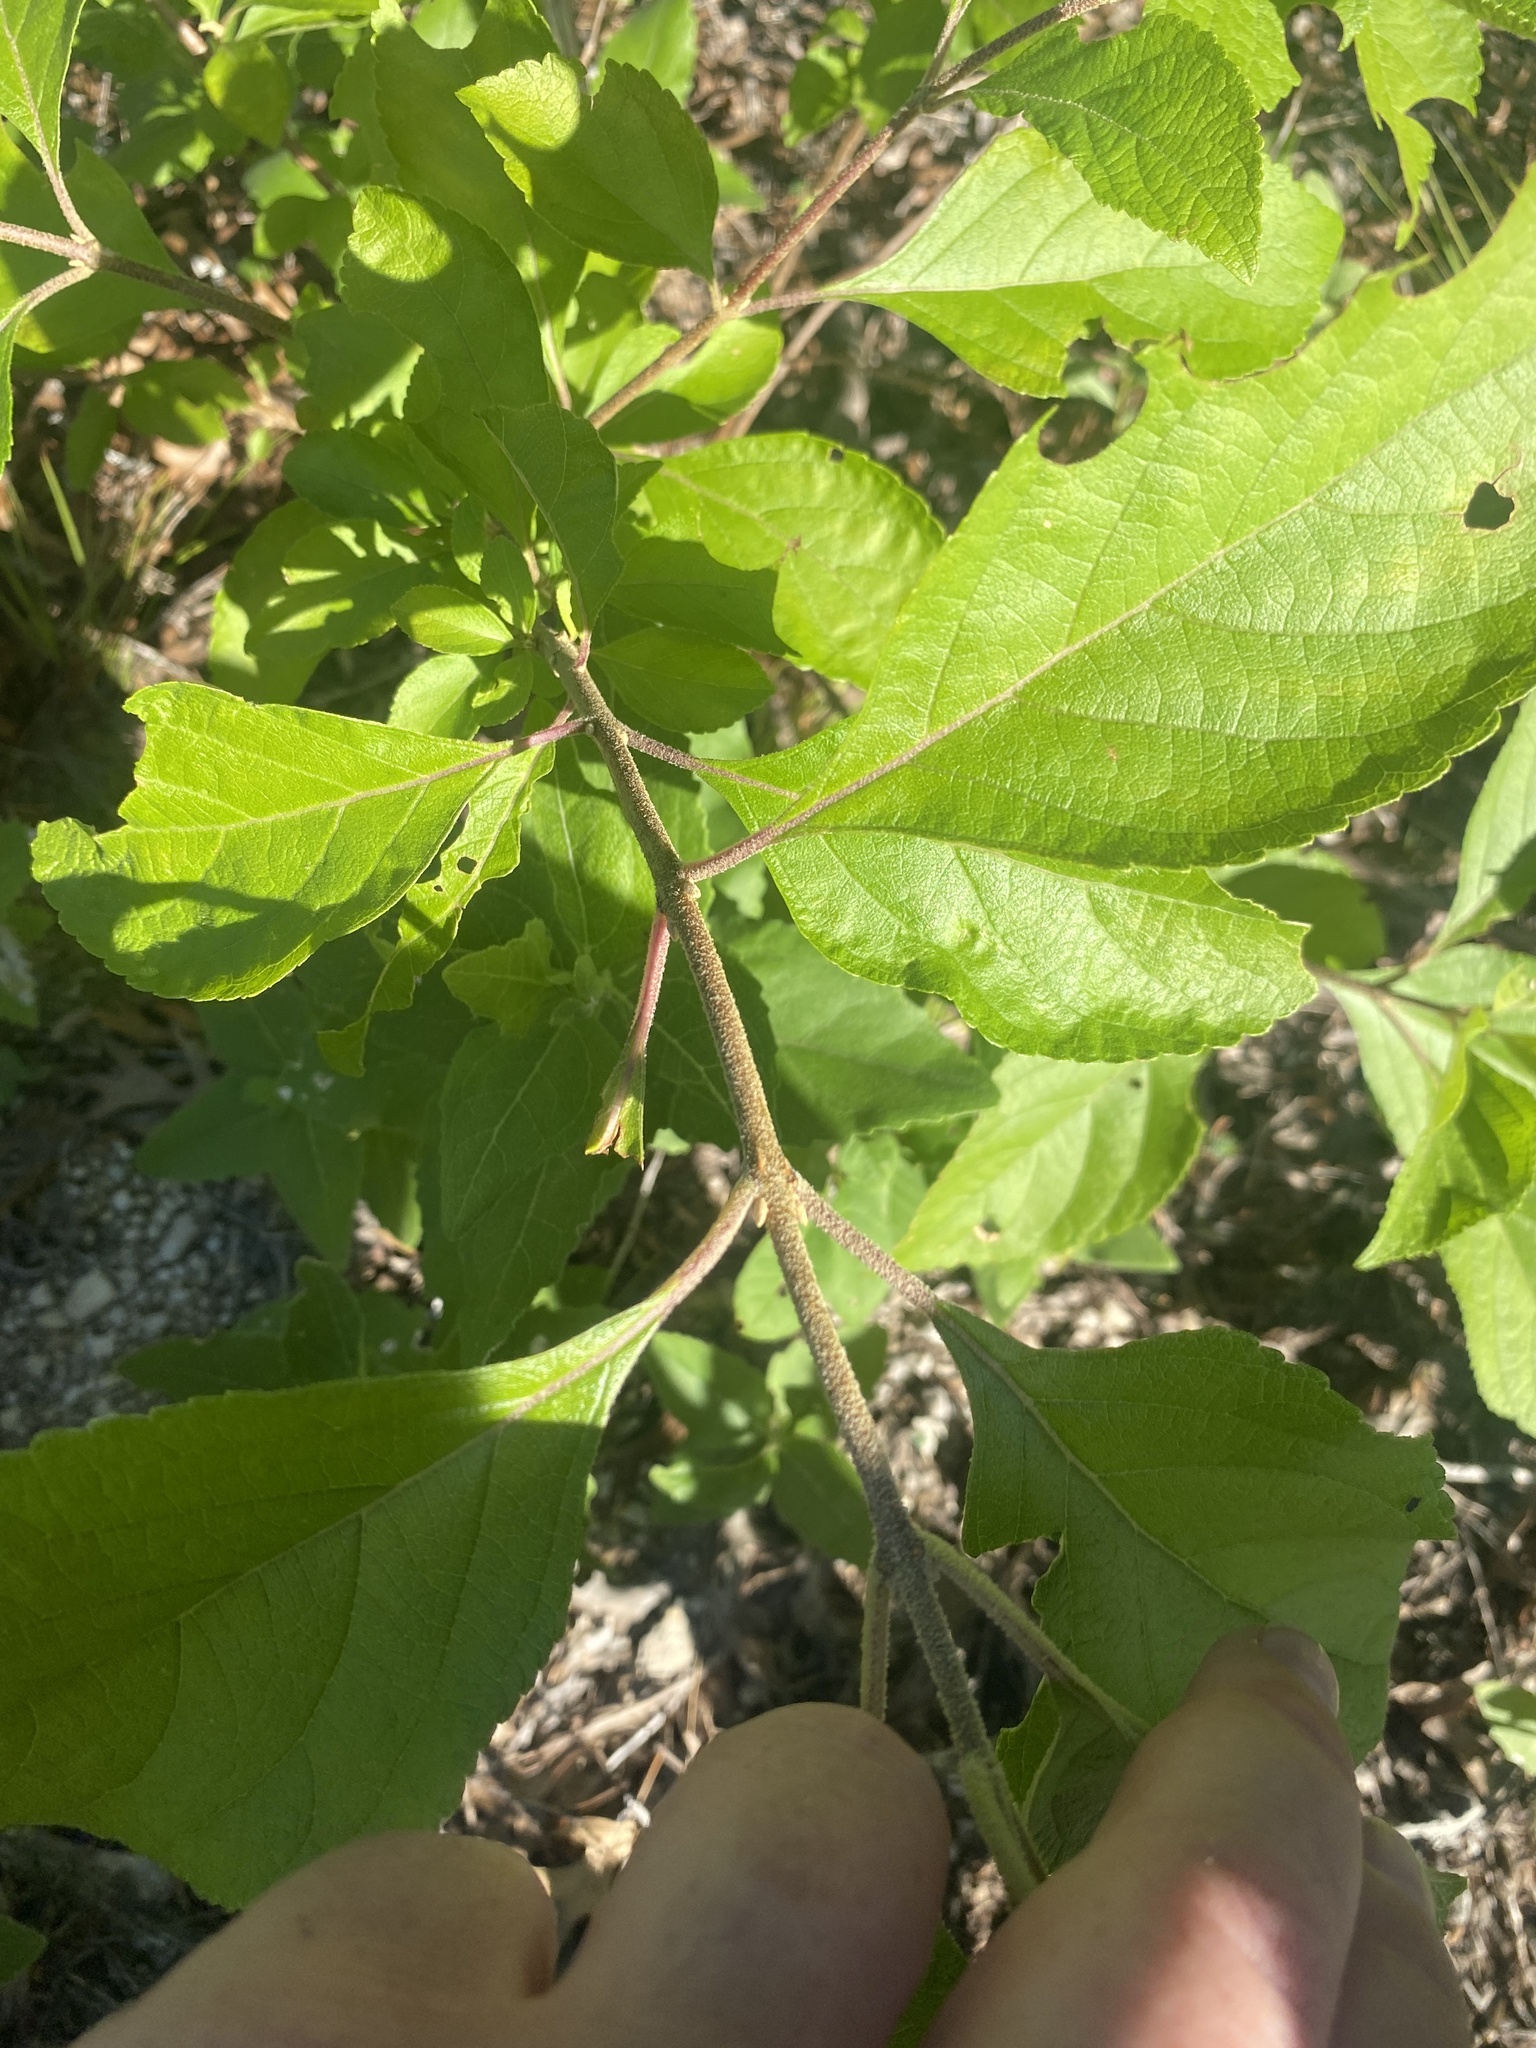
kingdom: Plantae
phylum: Tracheophyta
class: Magnoliopsida
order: Lamiales
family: Lamiaceae
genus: Callicarpa
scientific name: Callicarpa americana
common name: American beautyberry
